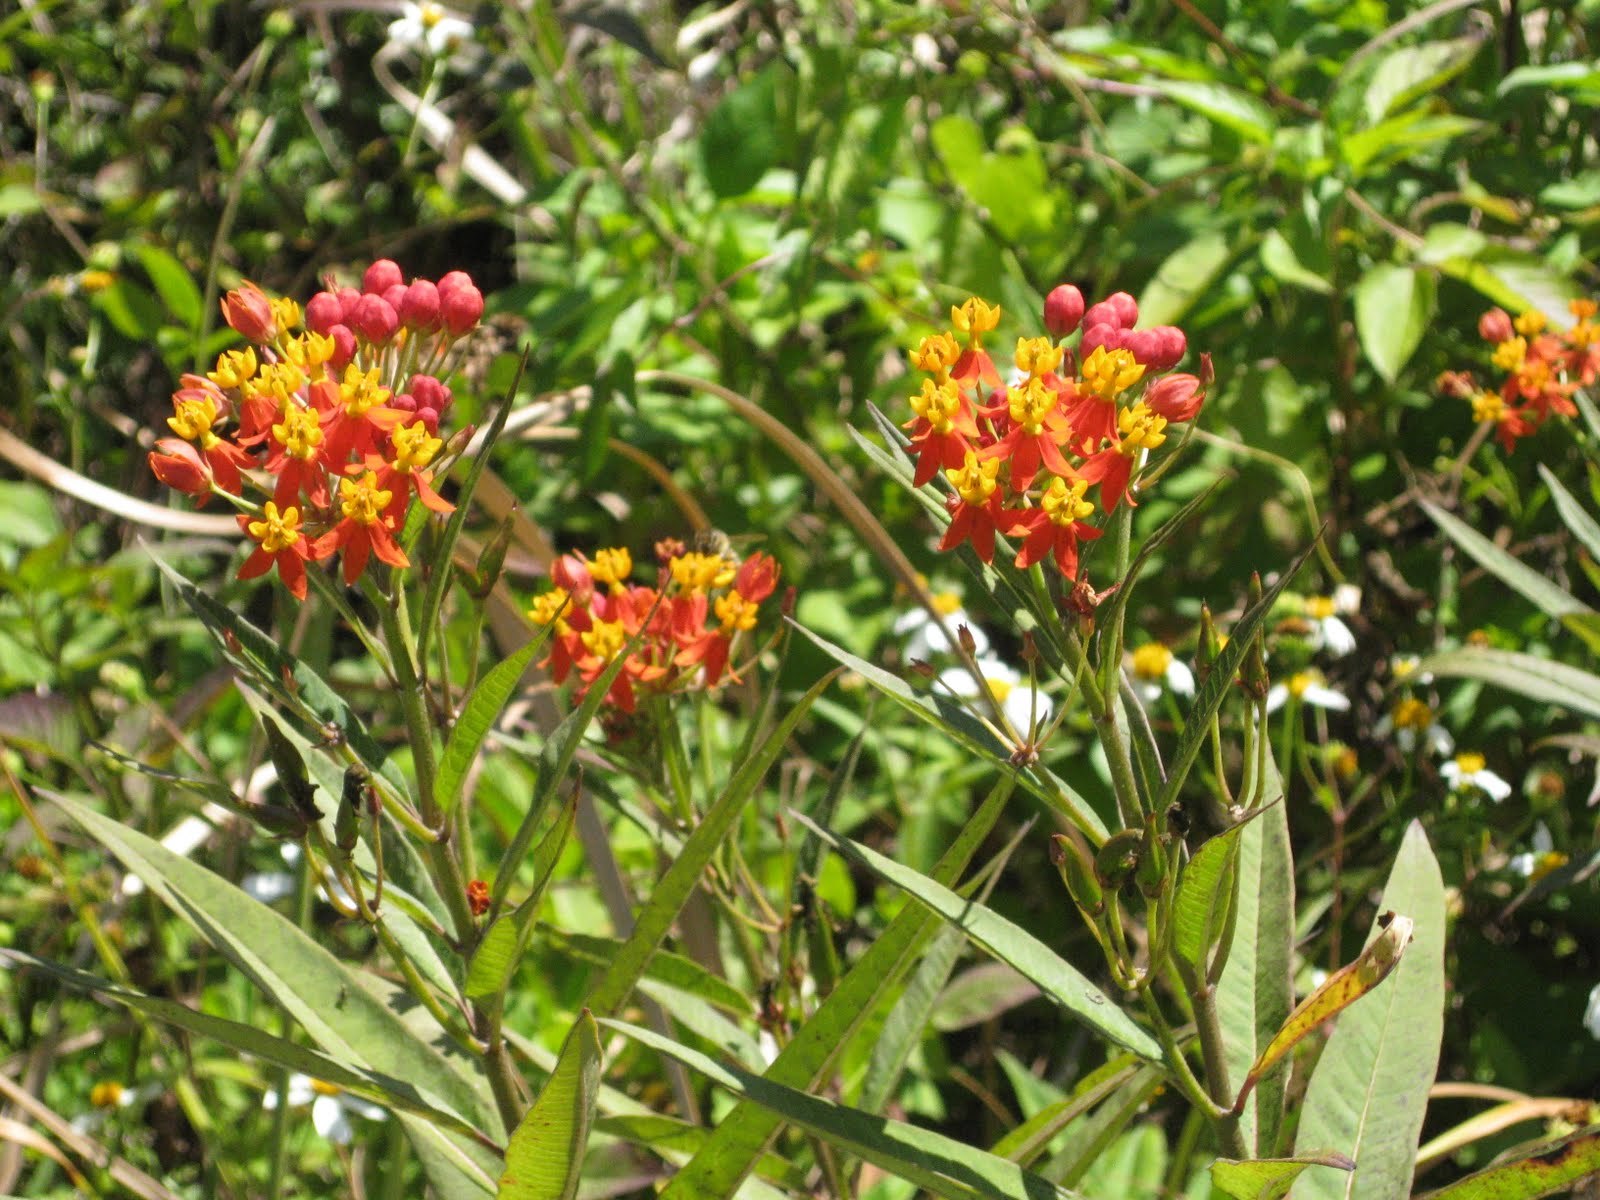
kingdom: Plantae
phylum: Tracheophyta
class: Magnoliopsida
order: Gentianales
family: Apocynaceae
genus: Asclepias
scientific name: Asclepias curassavica
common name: Bloodflower
